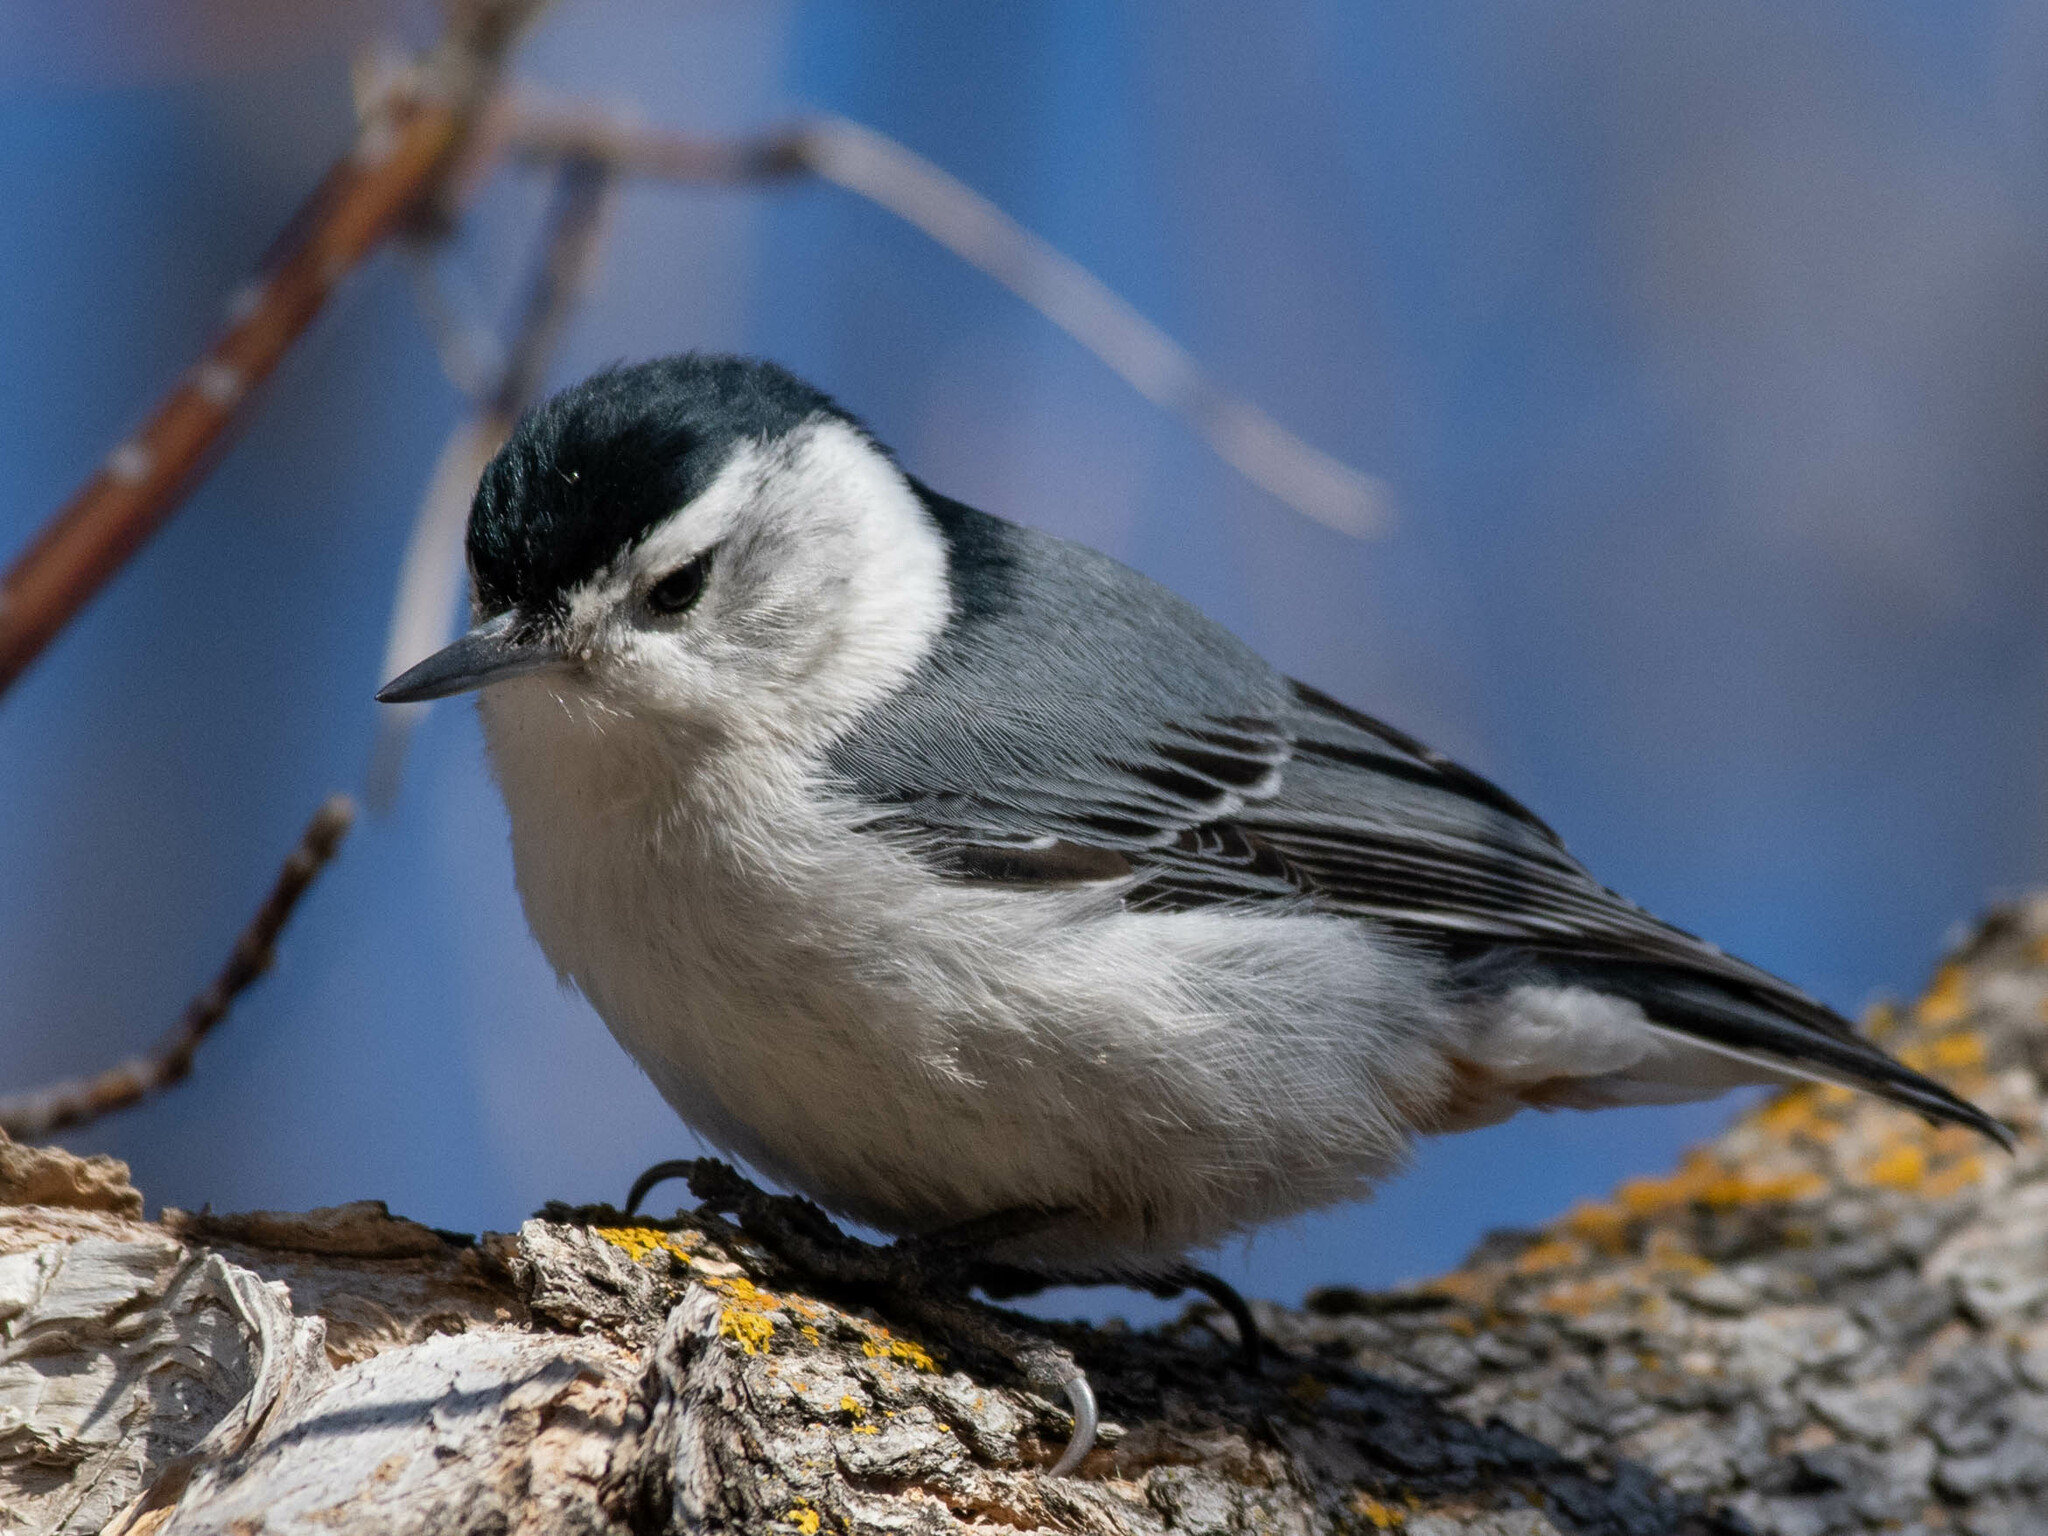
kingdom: Animalia
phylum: Chordata
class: Aves
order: Passeriformes
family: Sittidae
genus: Sitta
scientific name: Sitta carolinensis
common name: White-breasted nuthatch
